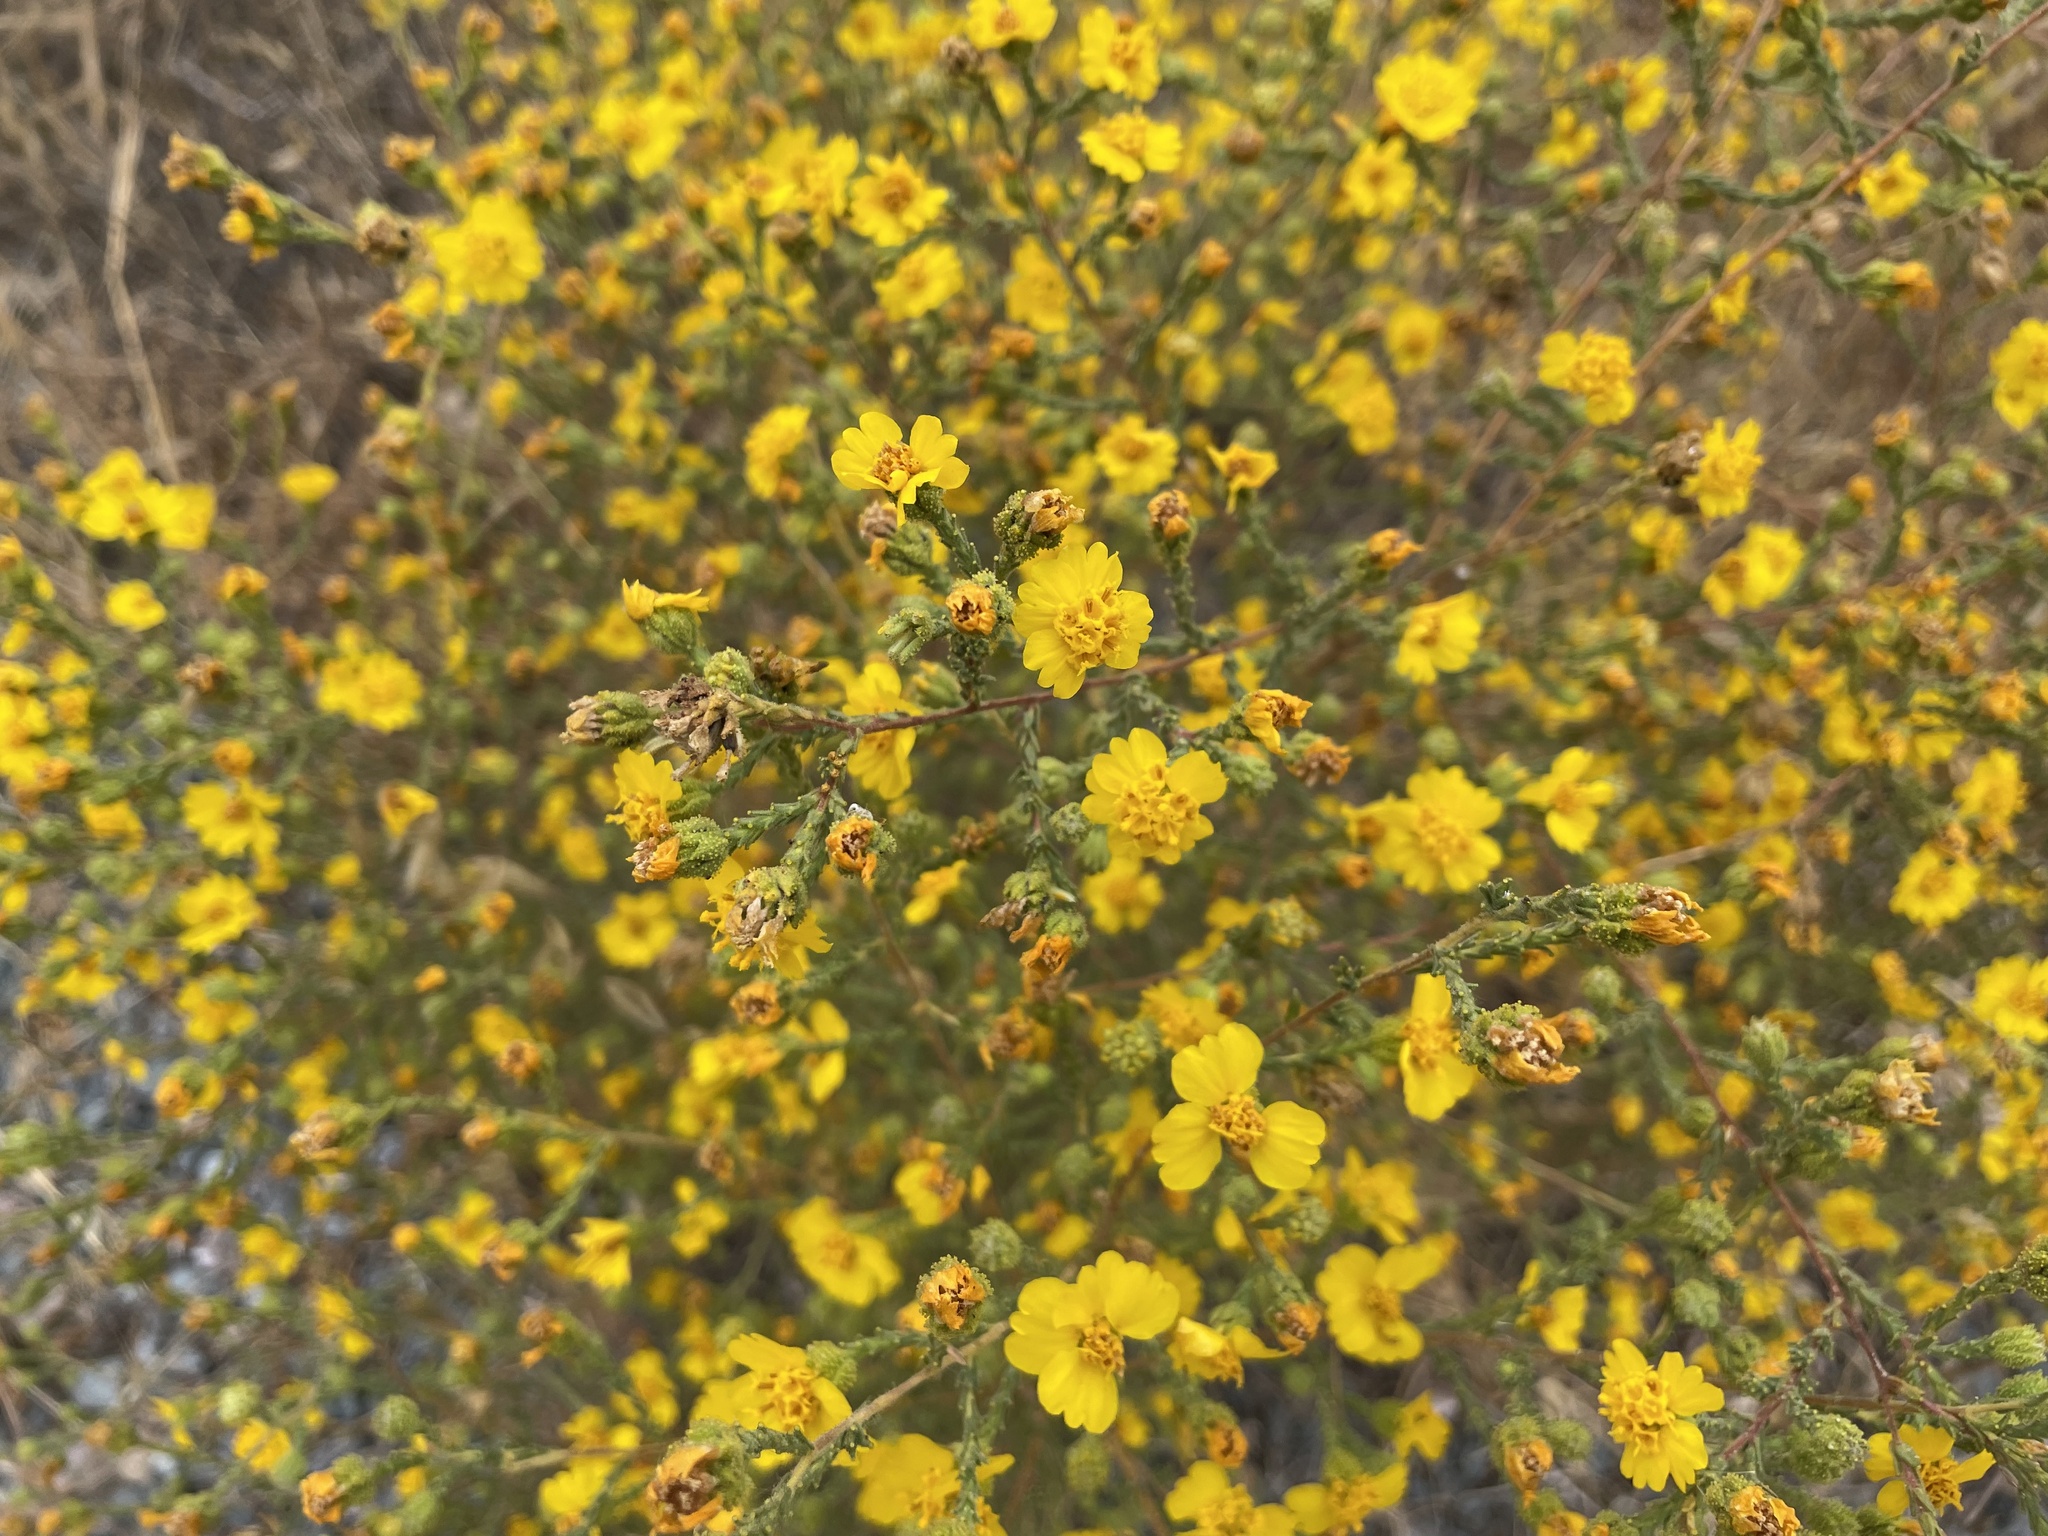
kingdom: Plantae
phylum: Tracheophyta
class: Magnoliopsida
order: Asterales
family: Asteraceae
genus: Holocarpha
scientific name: Holocarpha heermannii
